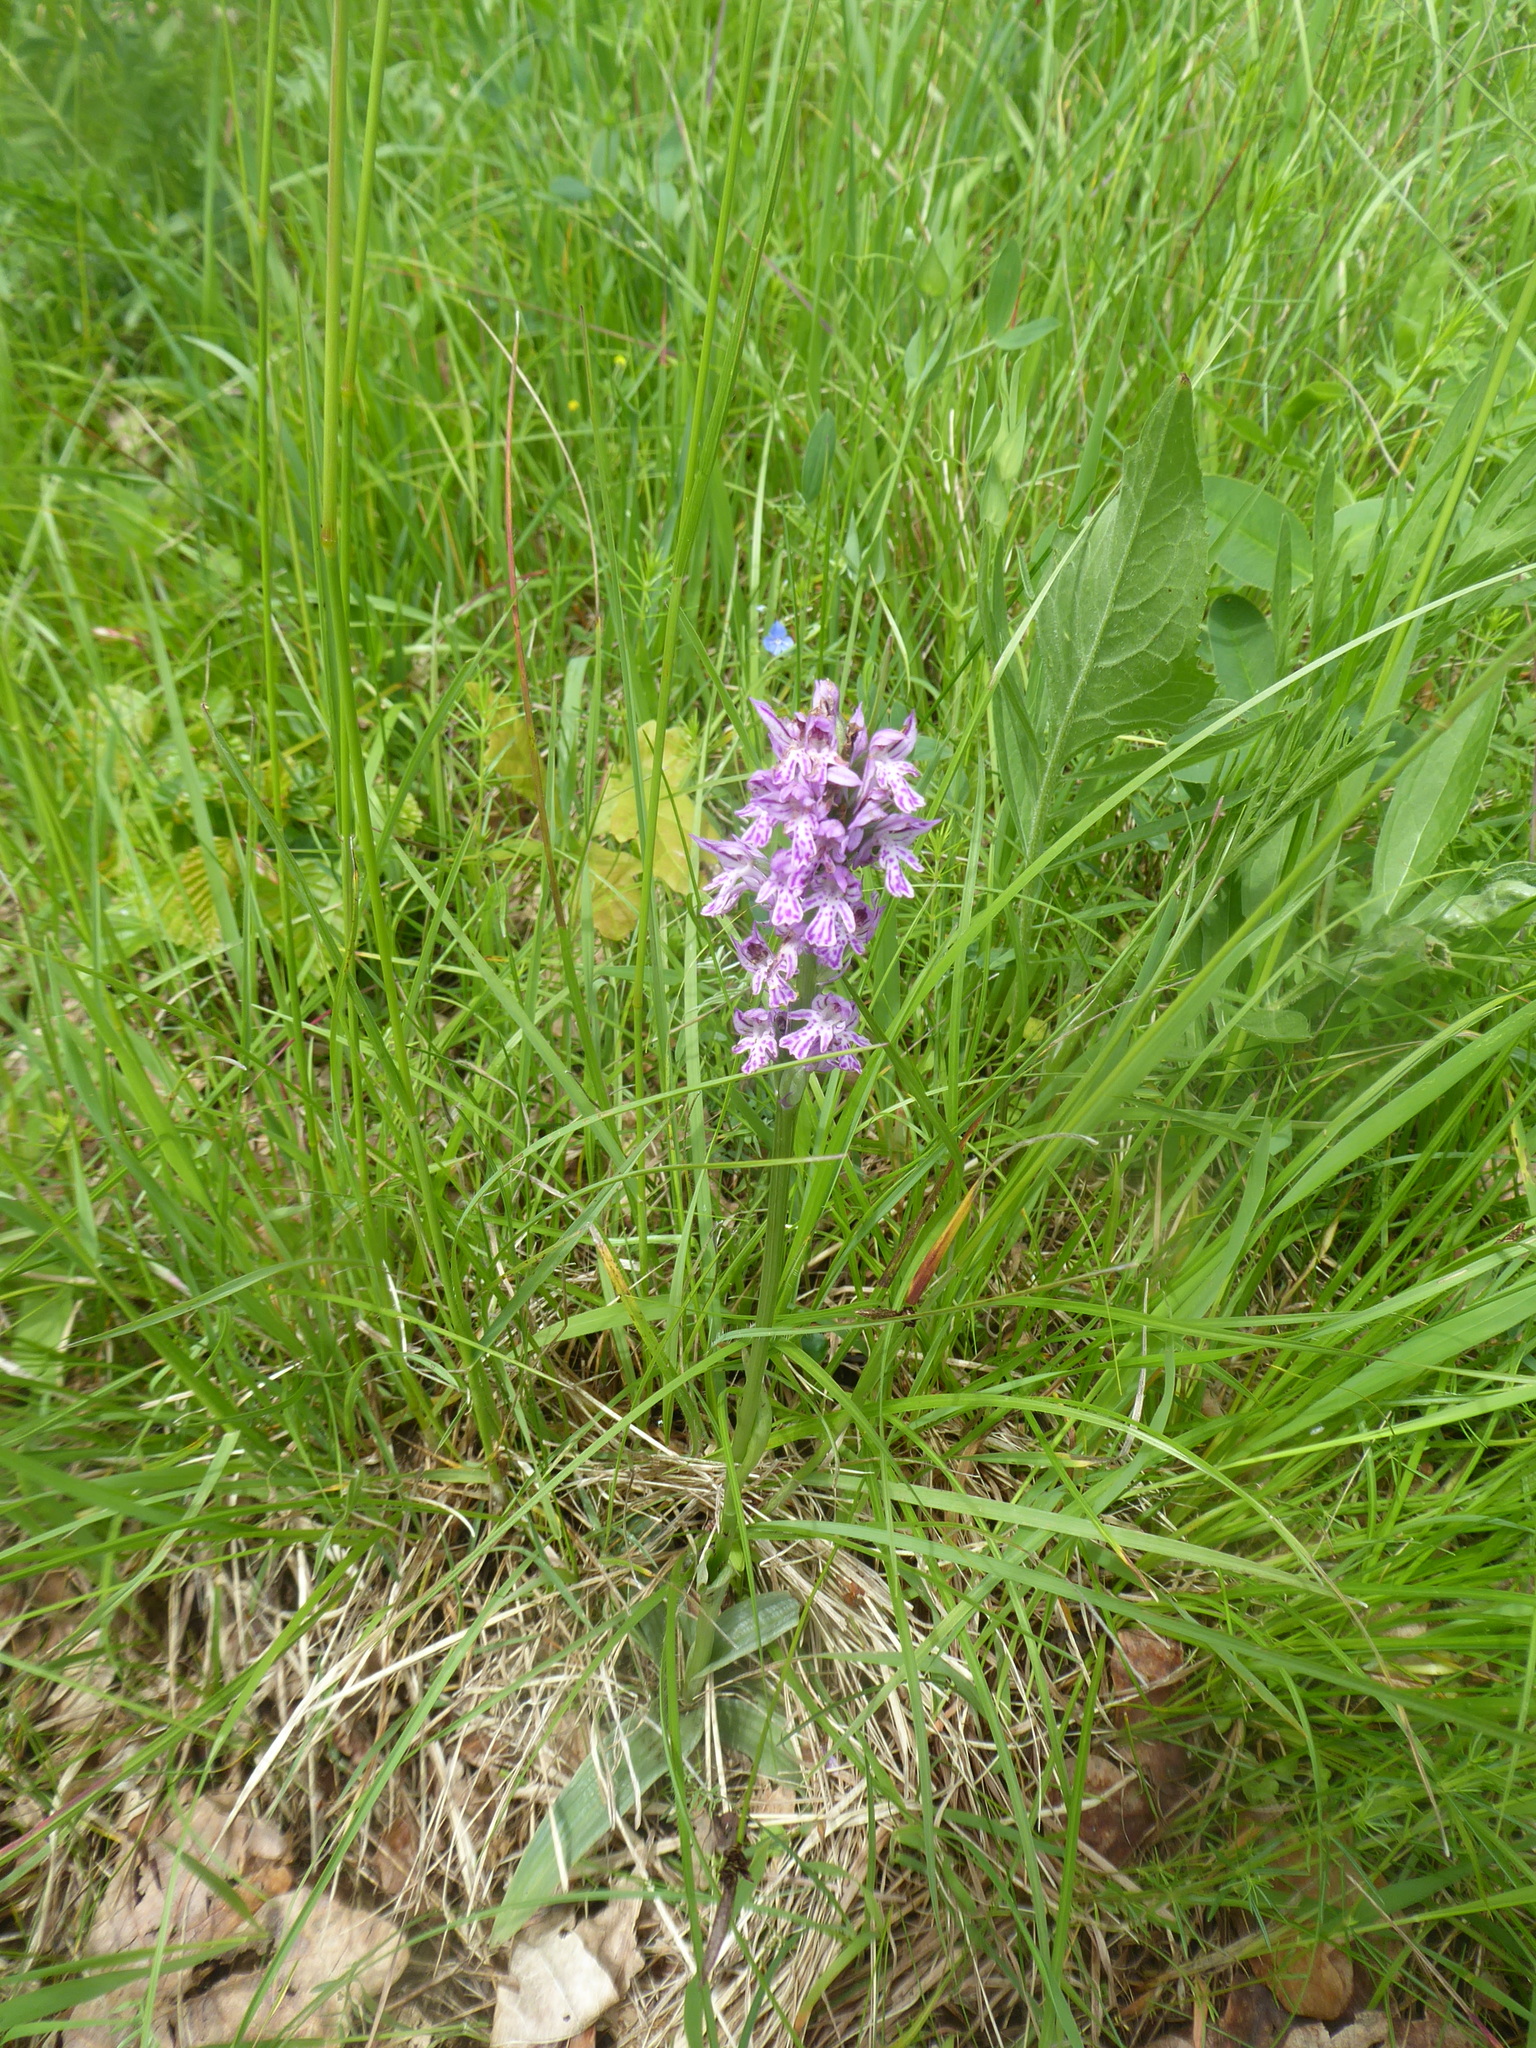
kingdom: Plantae
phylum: Tracheophyta
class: Liliopsida
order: Asparagales
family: Orchidaceae
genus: Neotinea
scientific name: Neotinea tridentata
